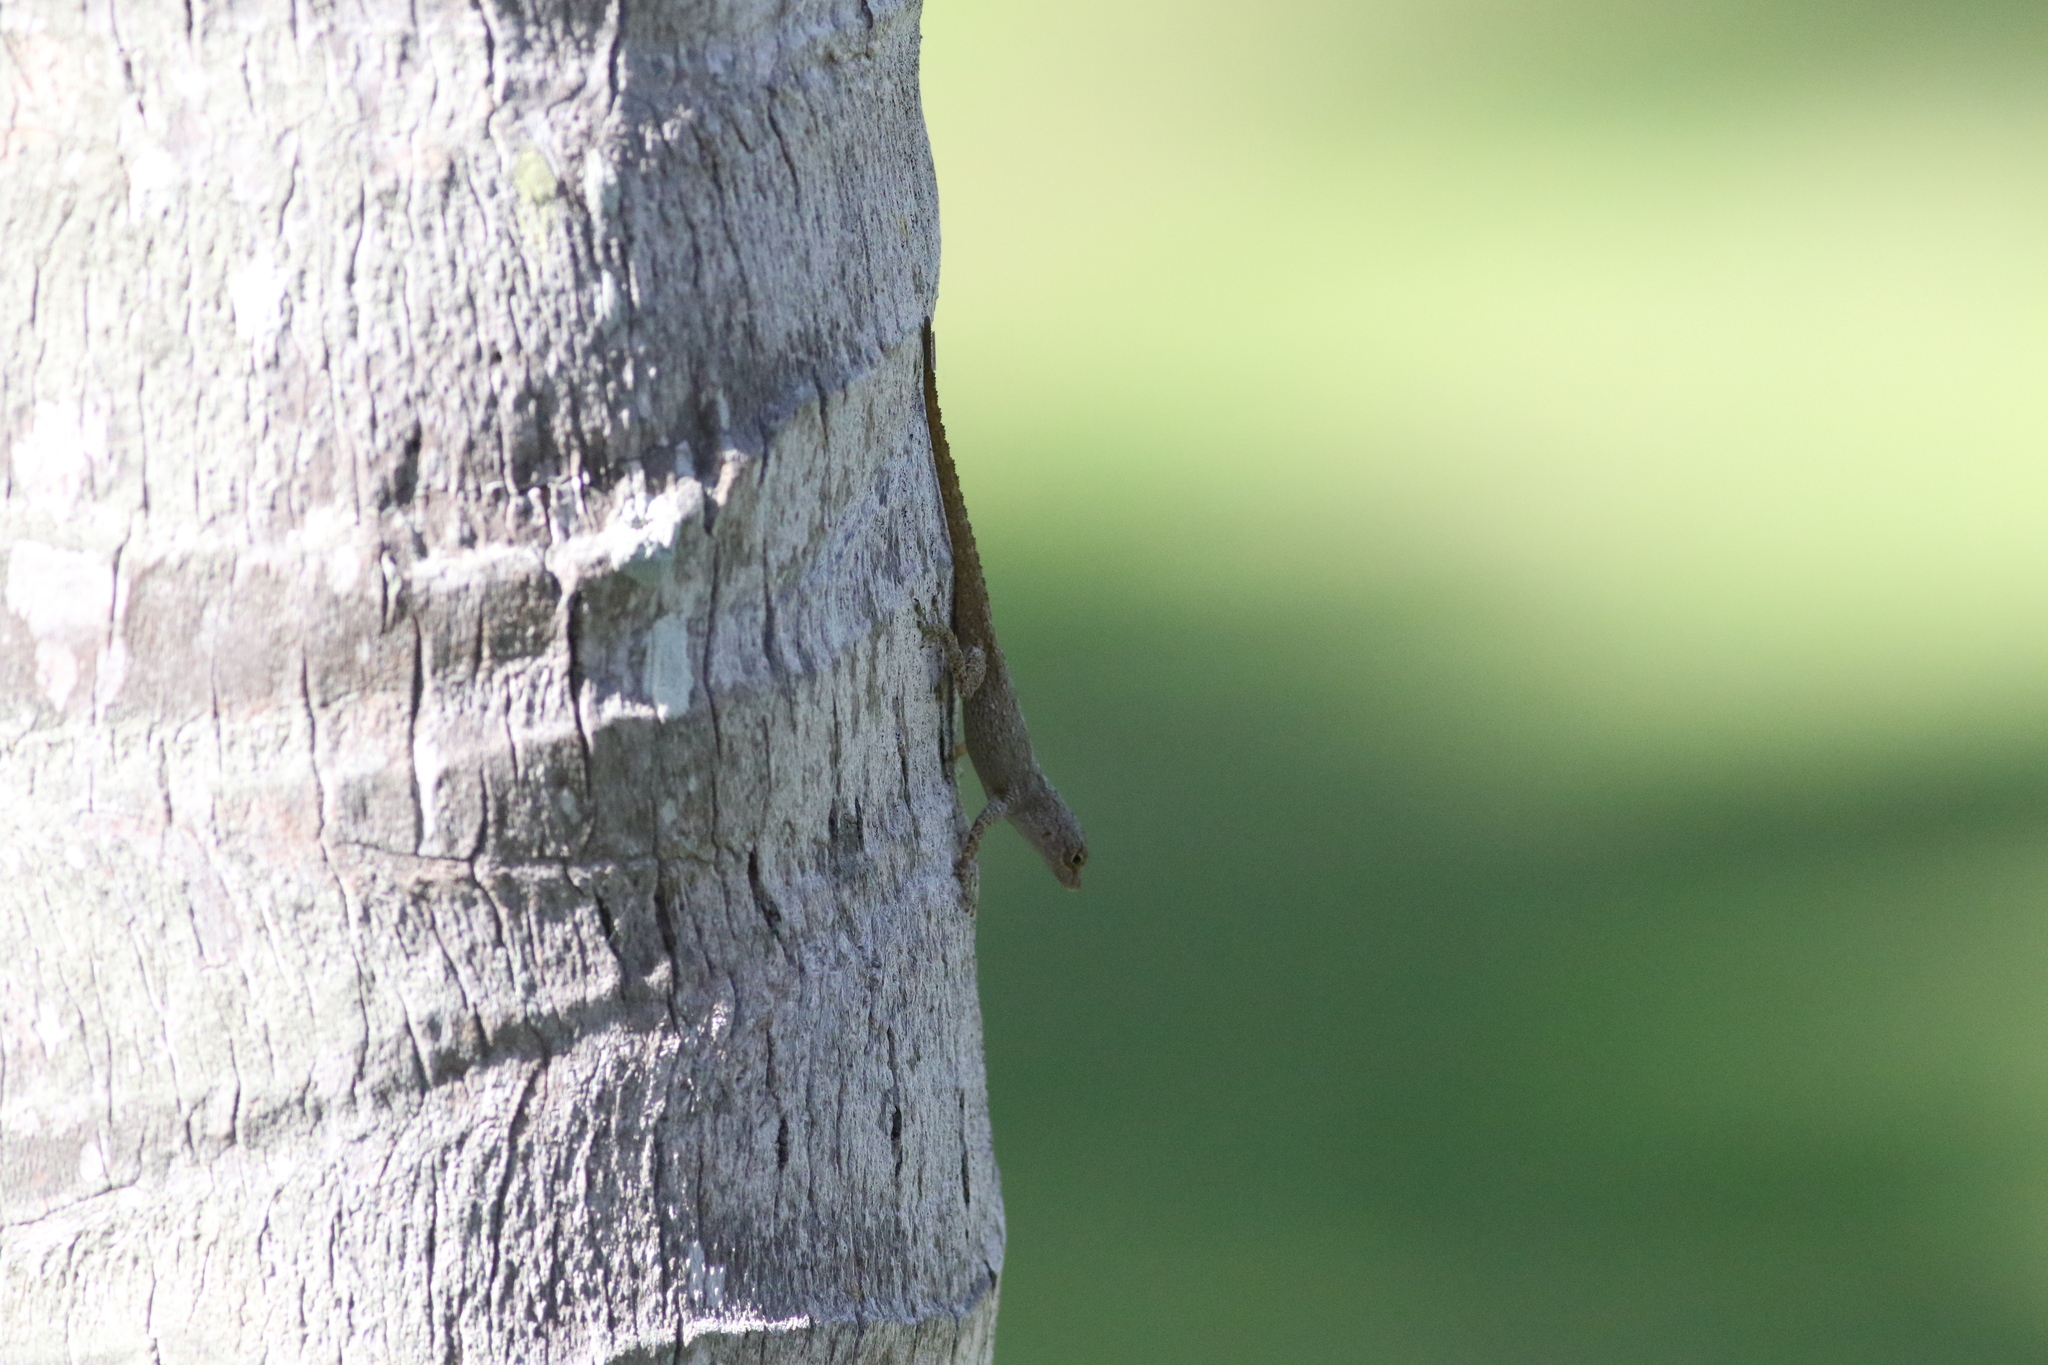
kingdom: Animalia
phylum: Chordata
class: Squamata
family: Dactyloidae
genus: Anolis
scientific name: Anolis distichus
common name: Bark anole
